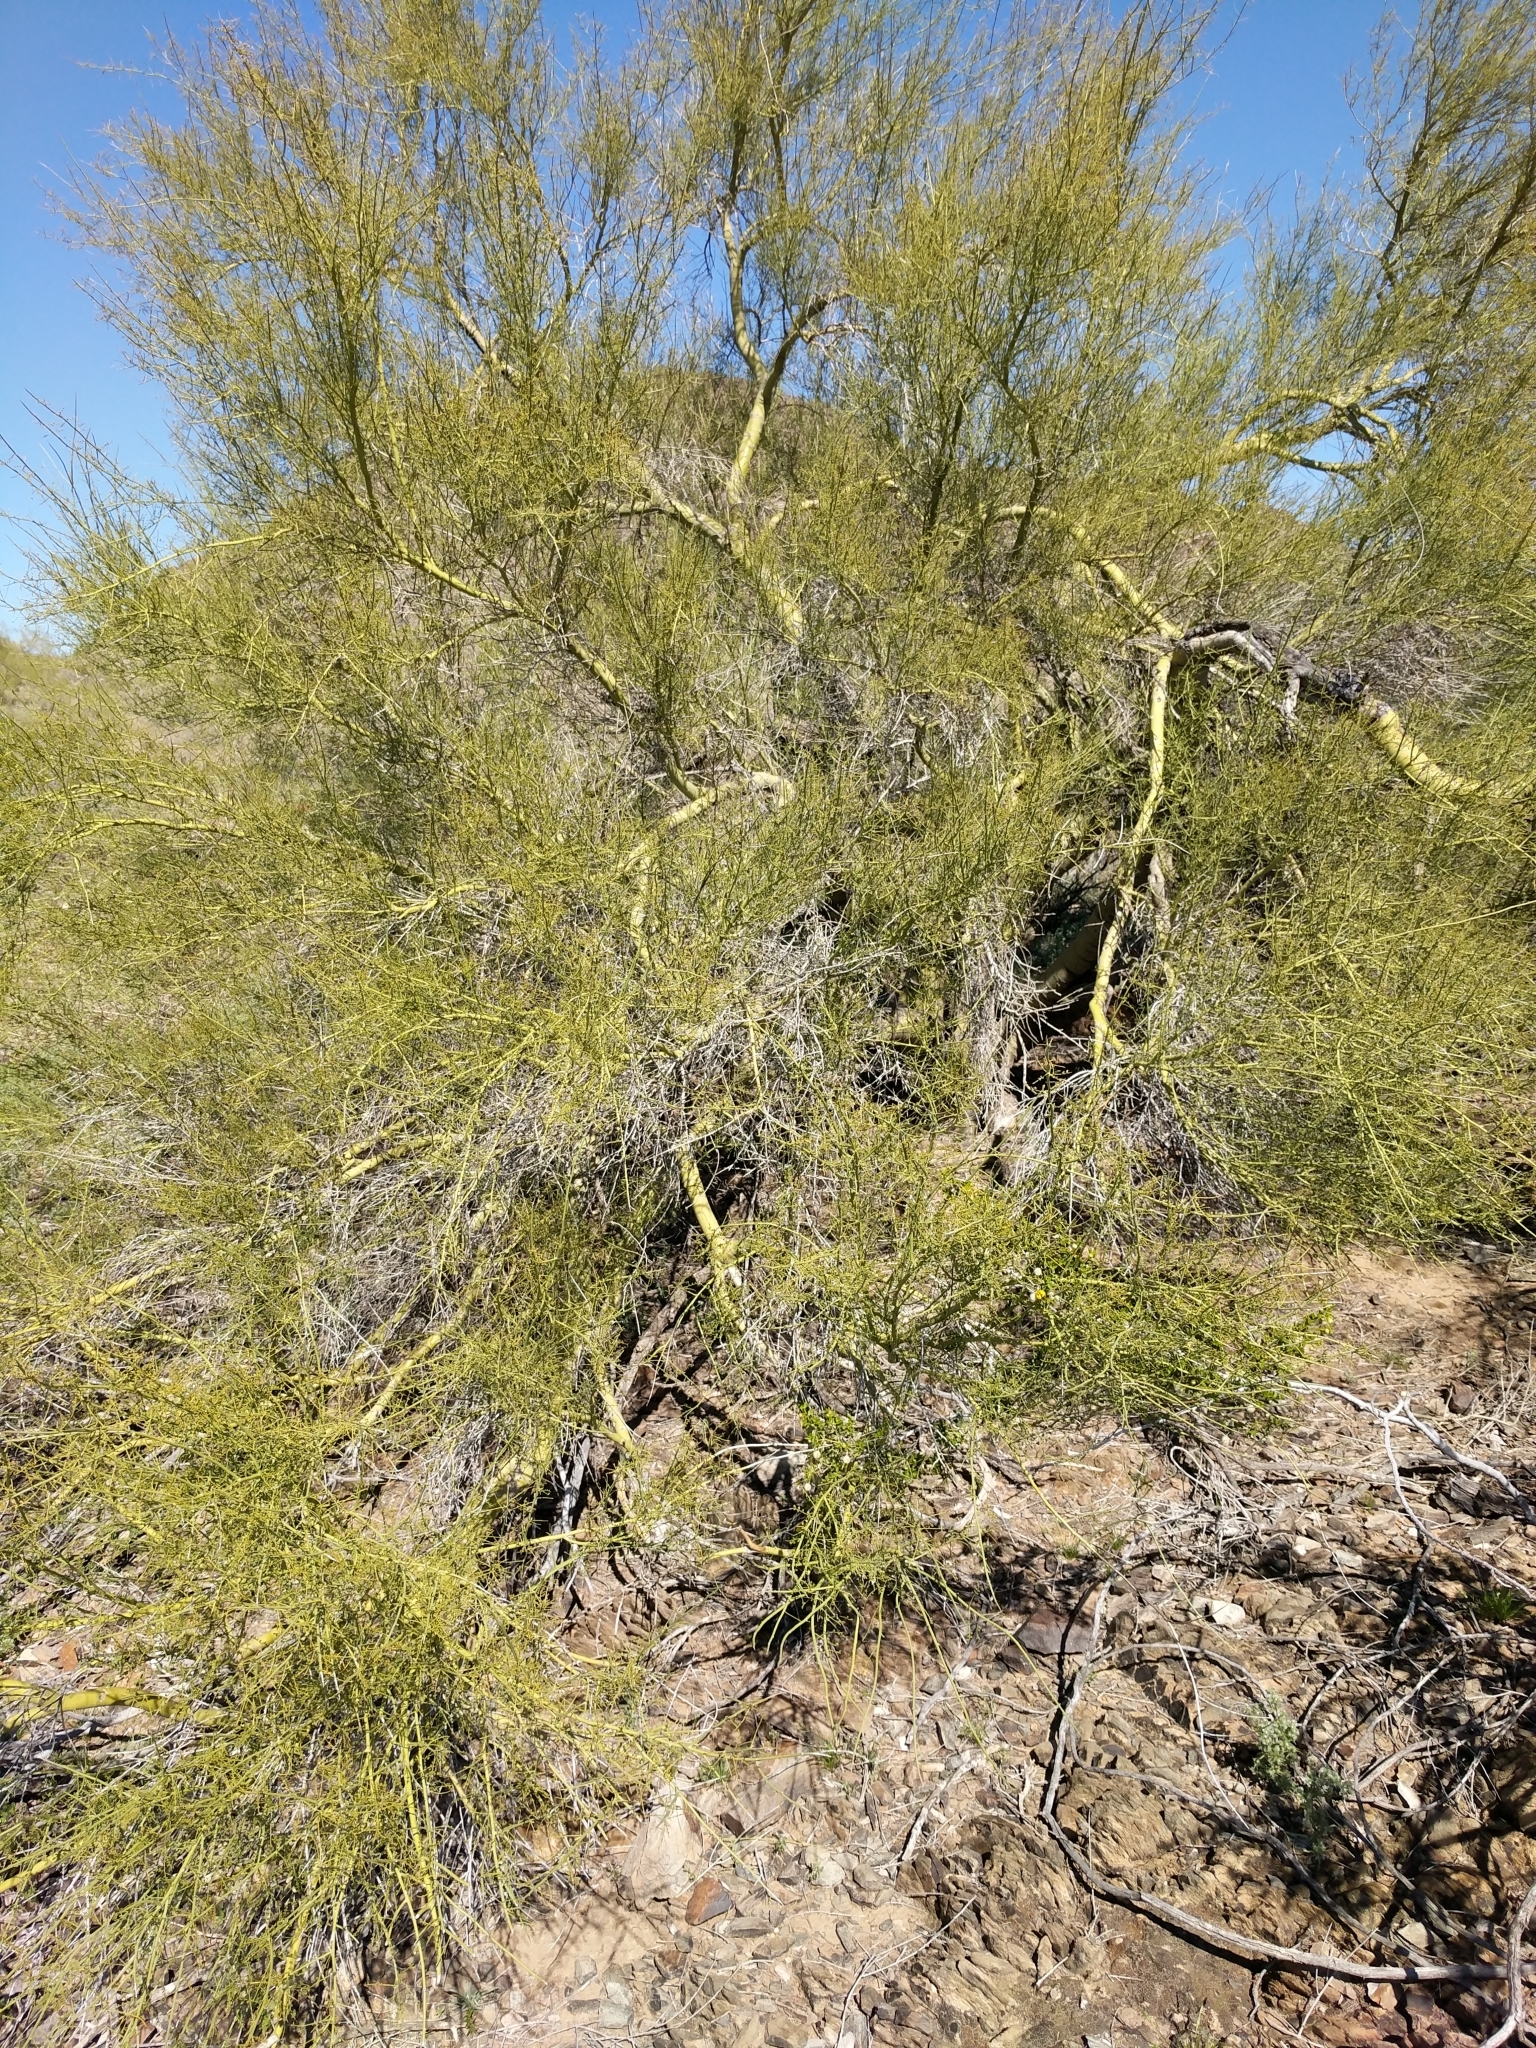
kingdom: Plantae
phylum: Tracheophyta
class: Magnoliopsida
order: Fabales
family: Fabaceae
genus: Parkinsonia
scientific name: Parkinsonia microphylla
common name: Yellow paloverde
